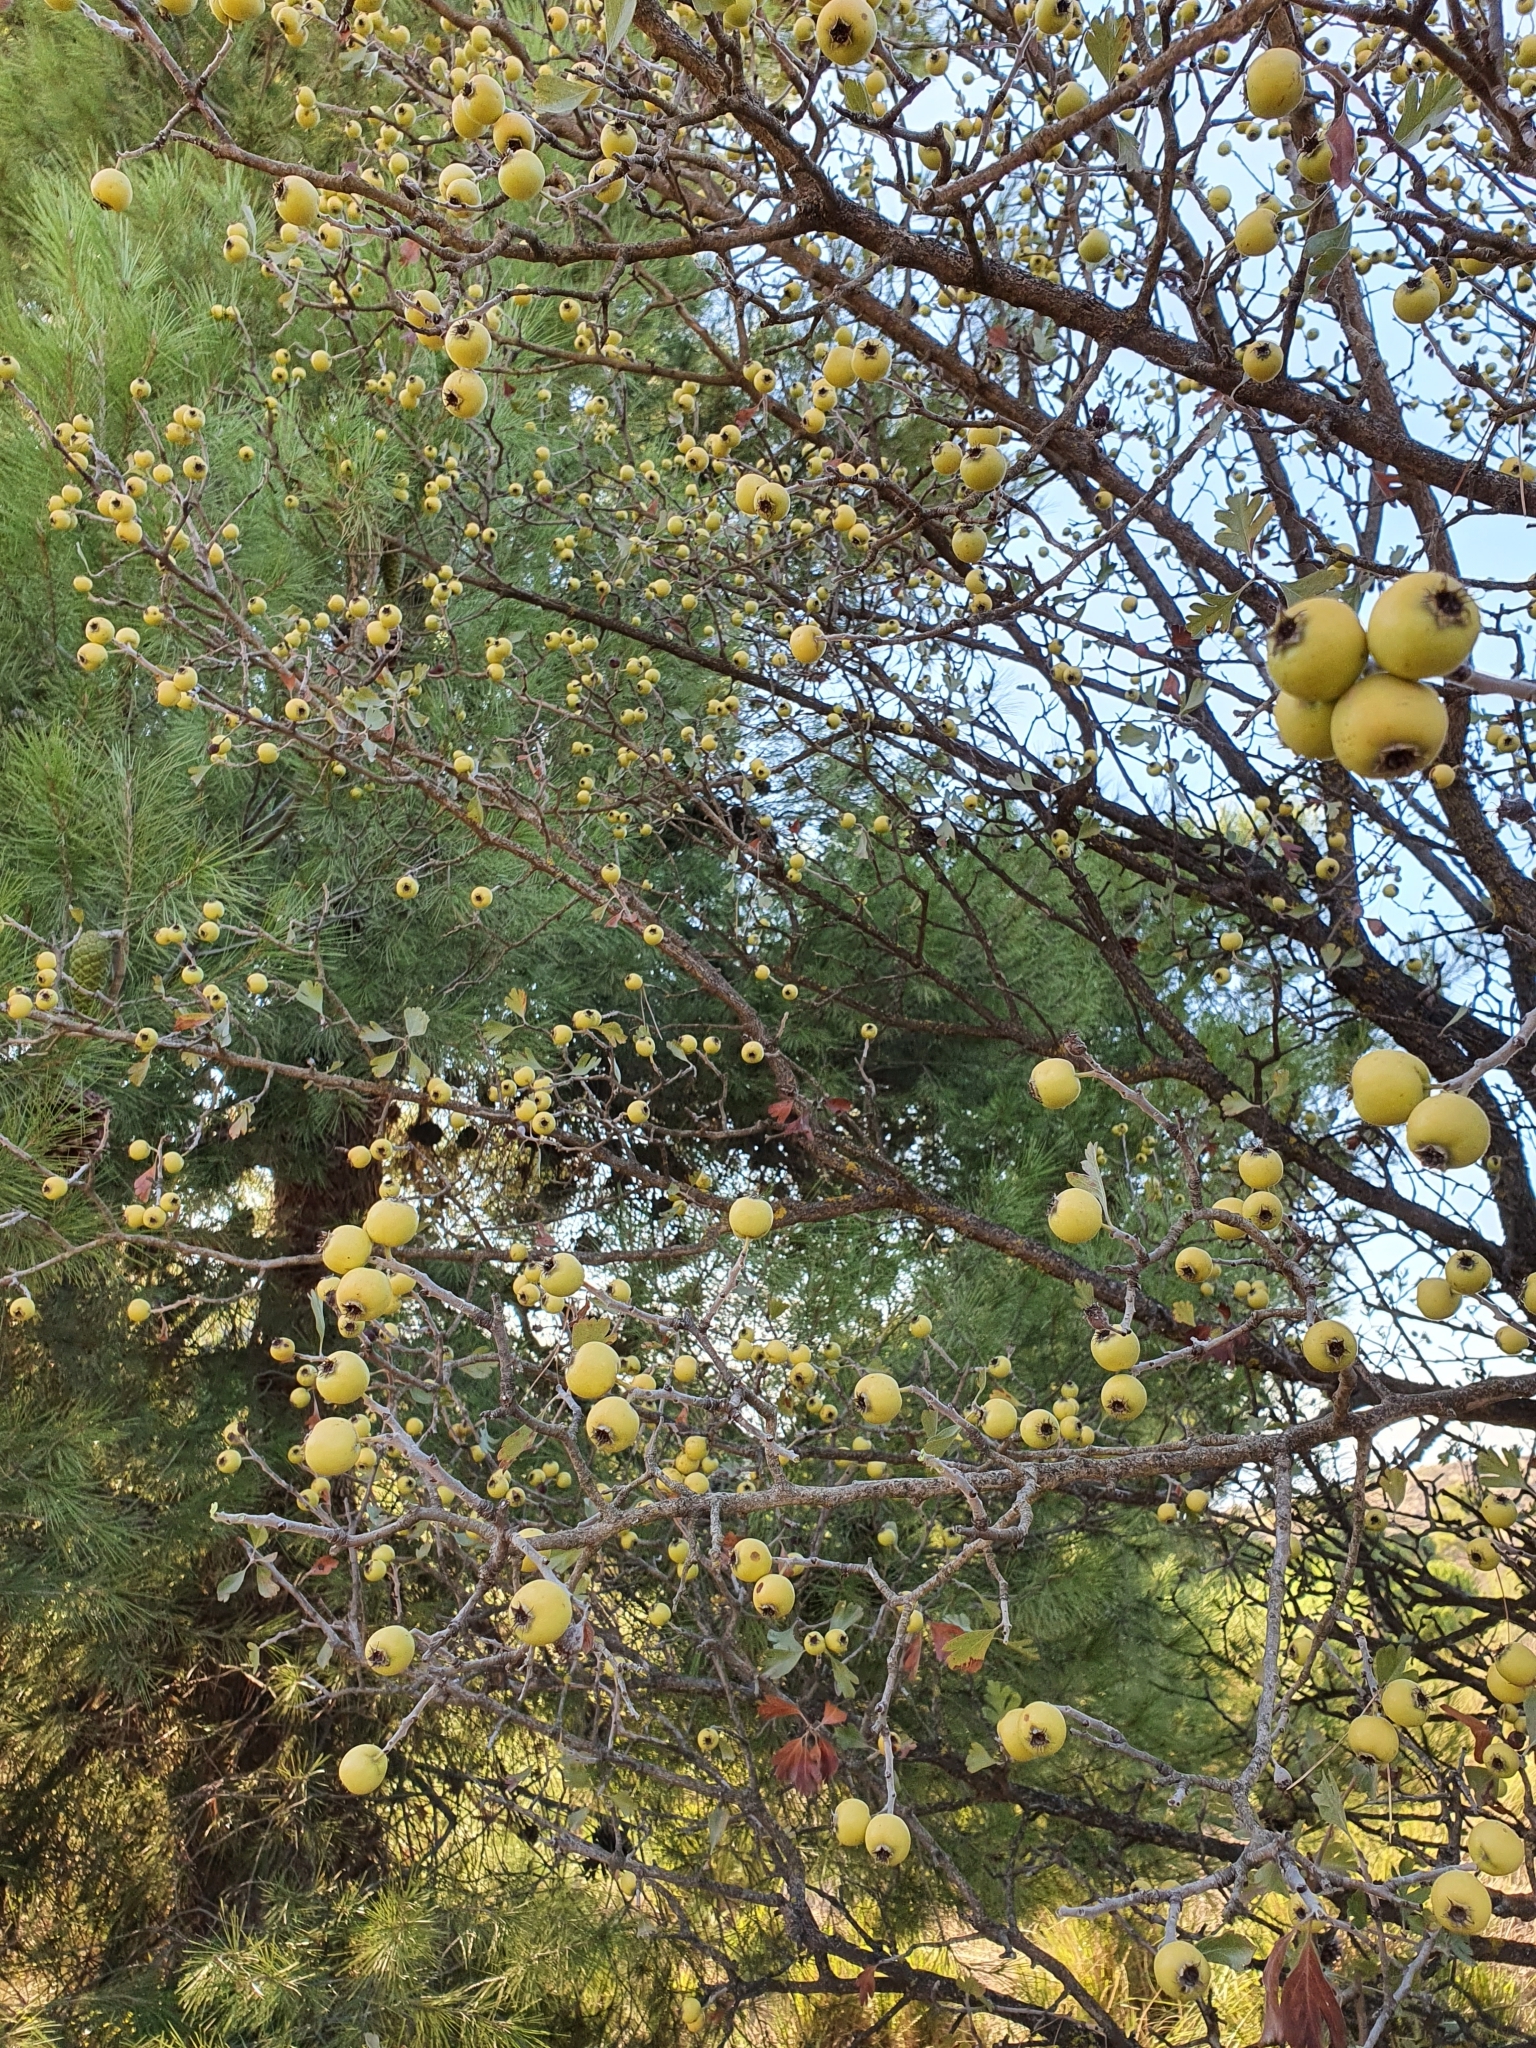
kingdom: Plantae
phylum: Tracheophyta
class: Magnoliopsida
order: Rosales
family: Rosaceae
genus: Crataegus
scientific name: Crataegus azarolus
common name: Azarole
